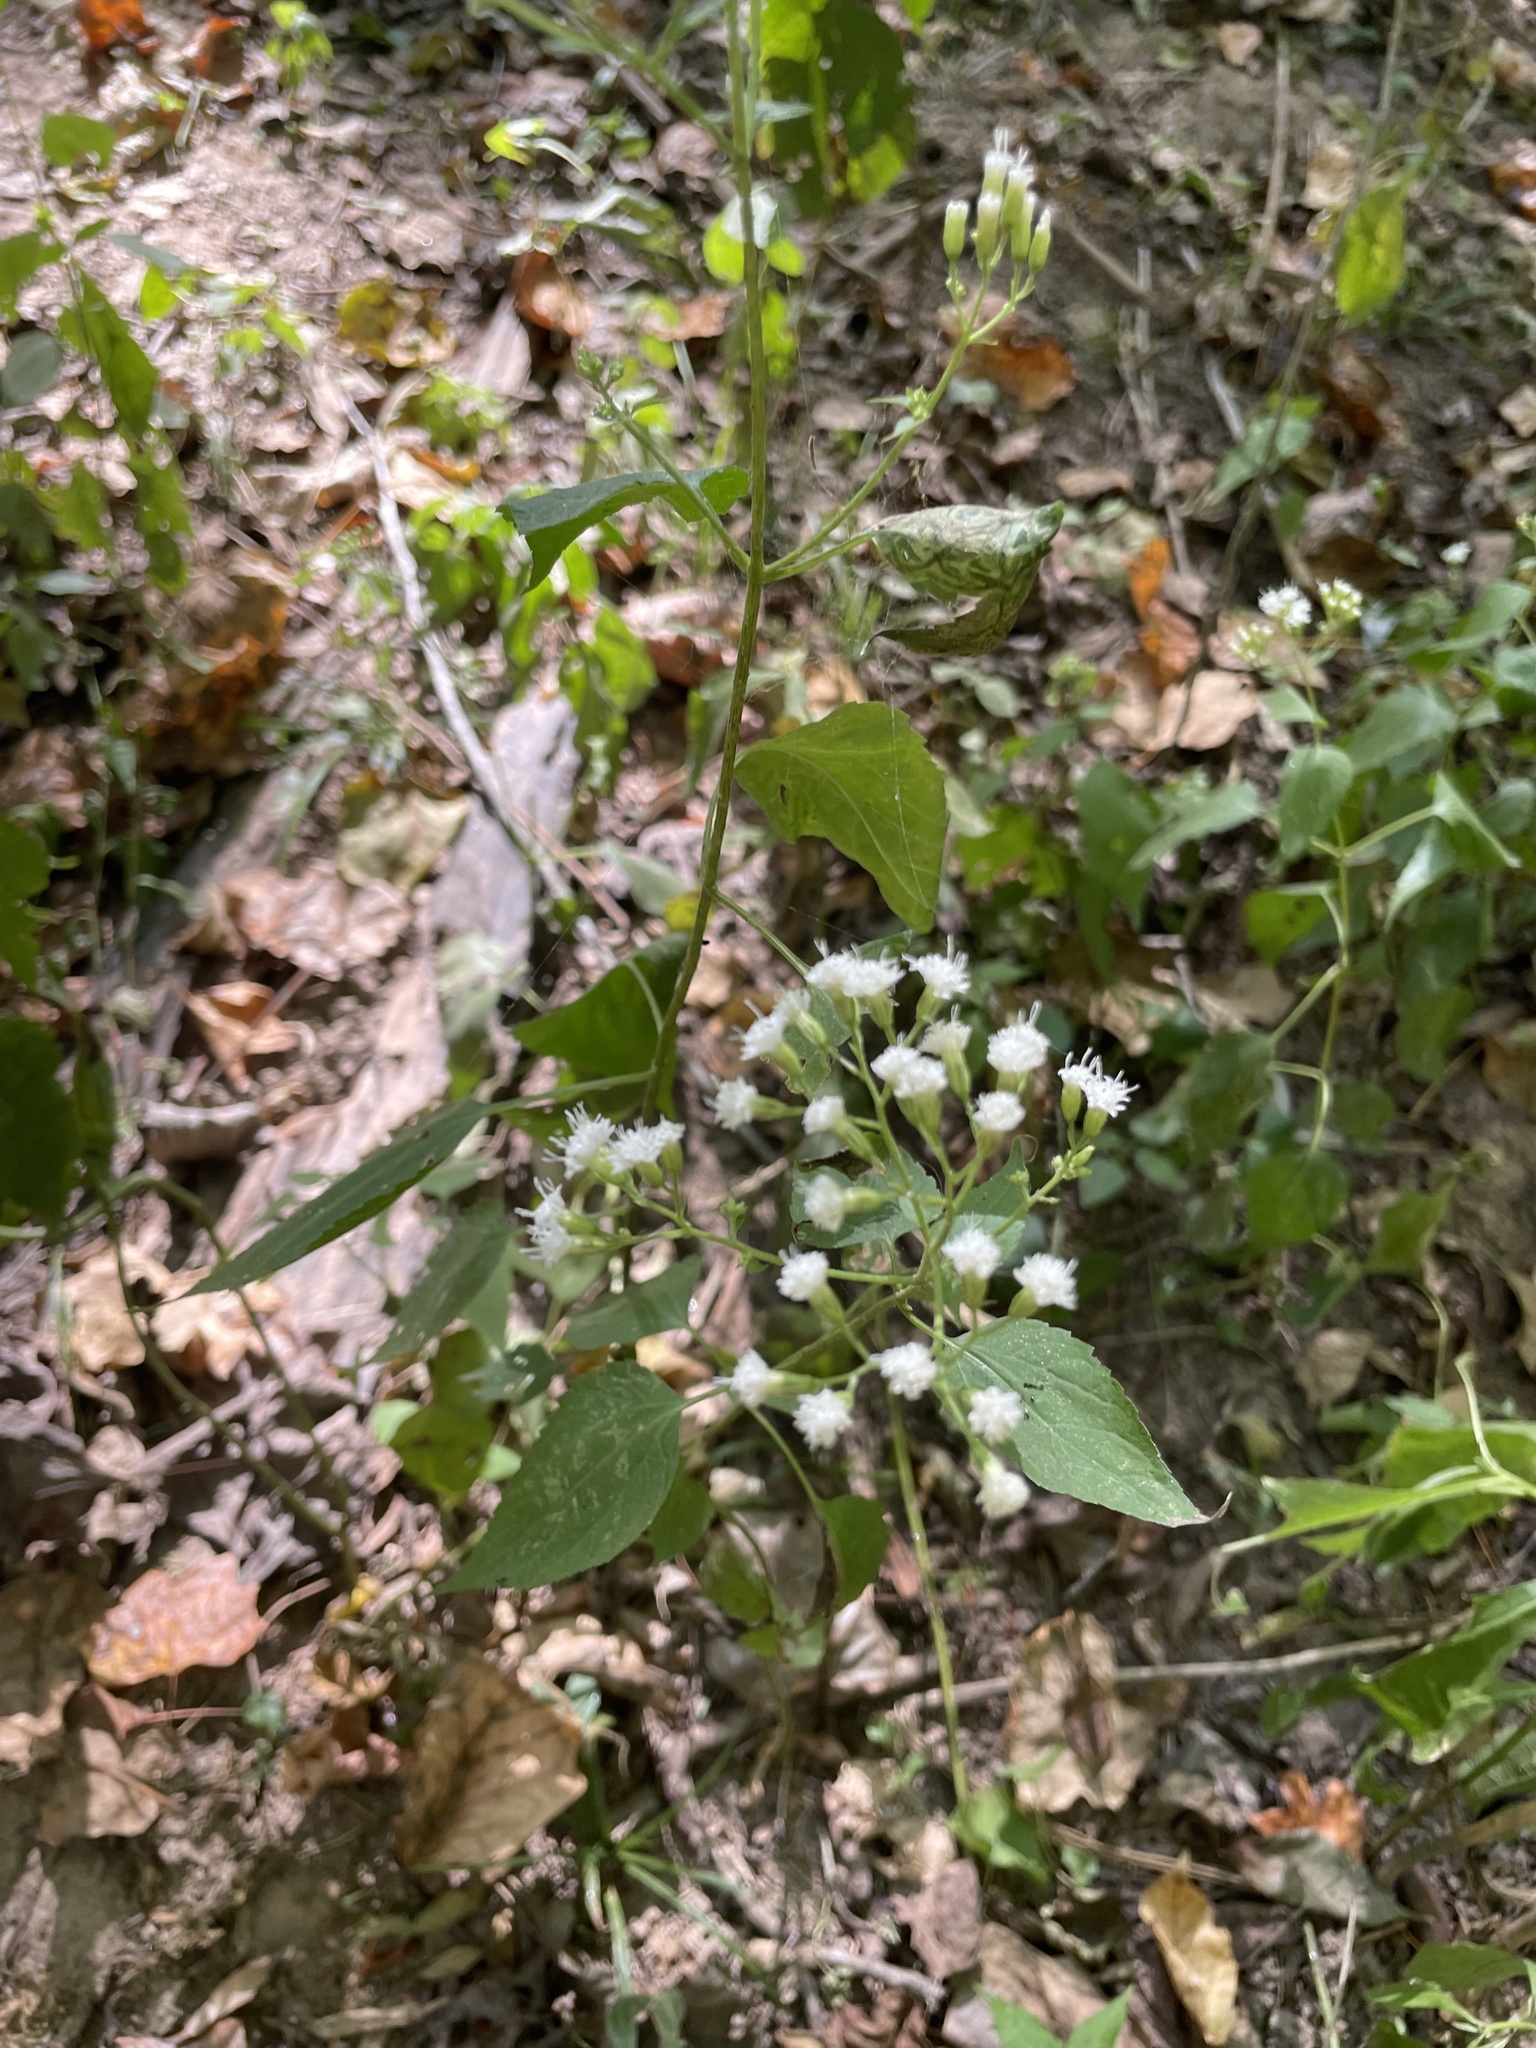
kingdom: Plantae
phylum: Tracheophyta
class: Magnoliopsida
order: Asterales
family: Asteraceae
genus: Ageratina
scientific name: Ageratina altissima
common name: White snakeroot
